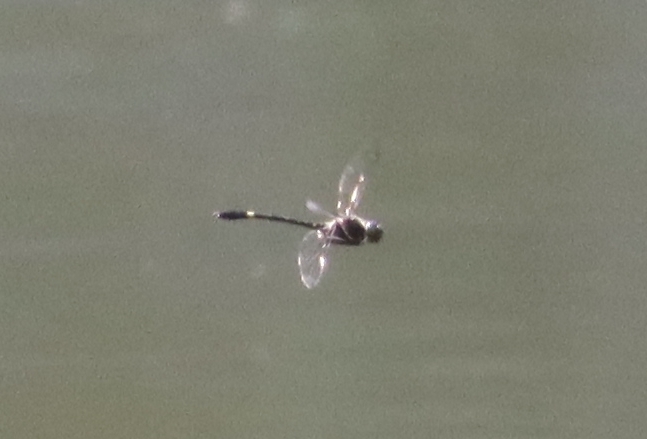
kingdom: Animalia
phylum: Arthropoda
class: Insecta
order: Odonata
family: Macromiidae
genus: Macromia
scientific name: Macromia illinoiensis
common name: Swift river cruiser
